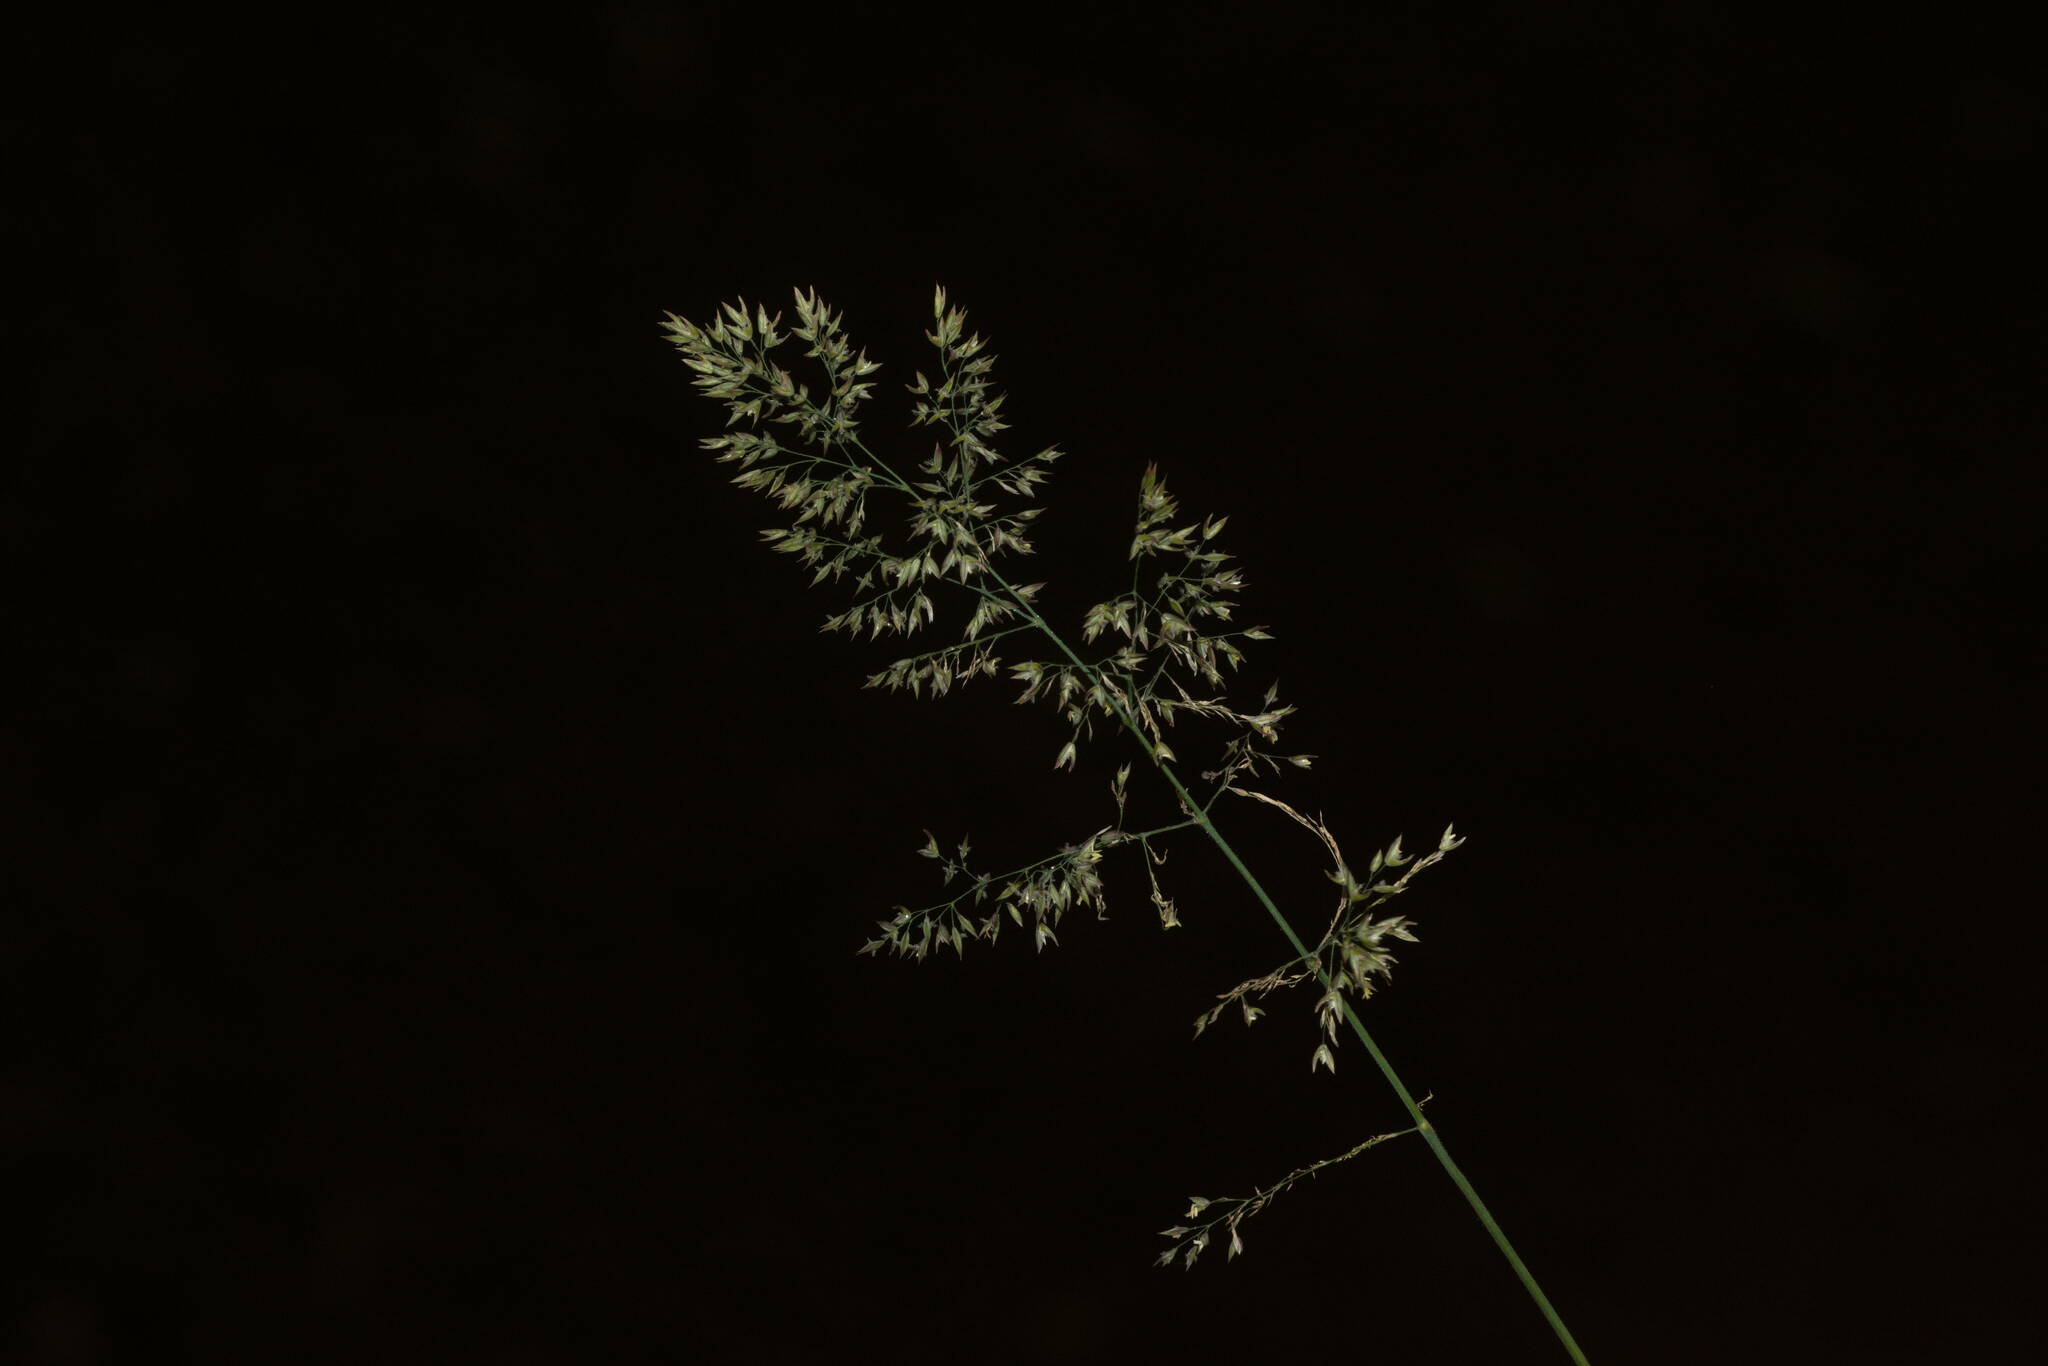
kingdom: Plantae
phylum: Tracheophyta
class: Liliopsida
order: Poales
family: Poaceae
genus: Holcus
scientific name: Holcus lanatus
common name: Yorkshire-fog
